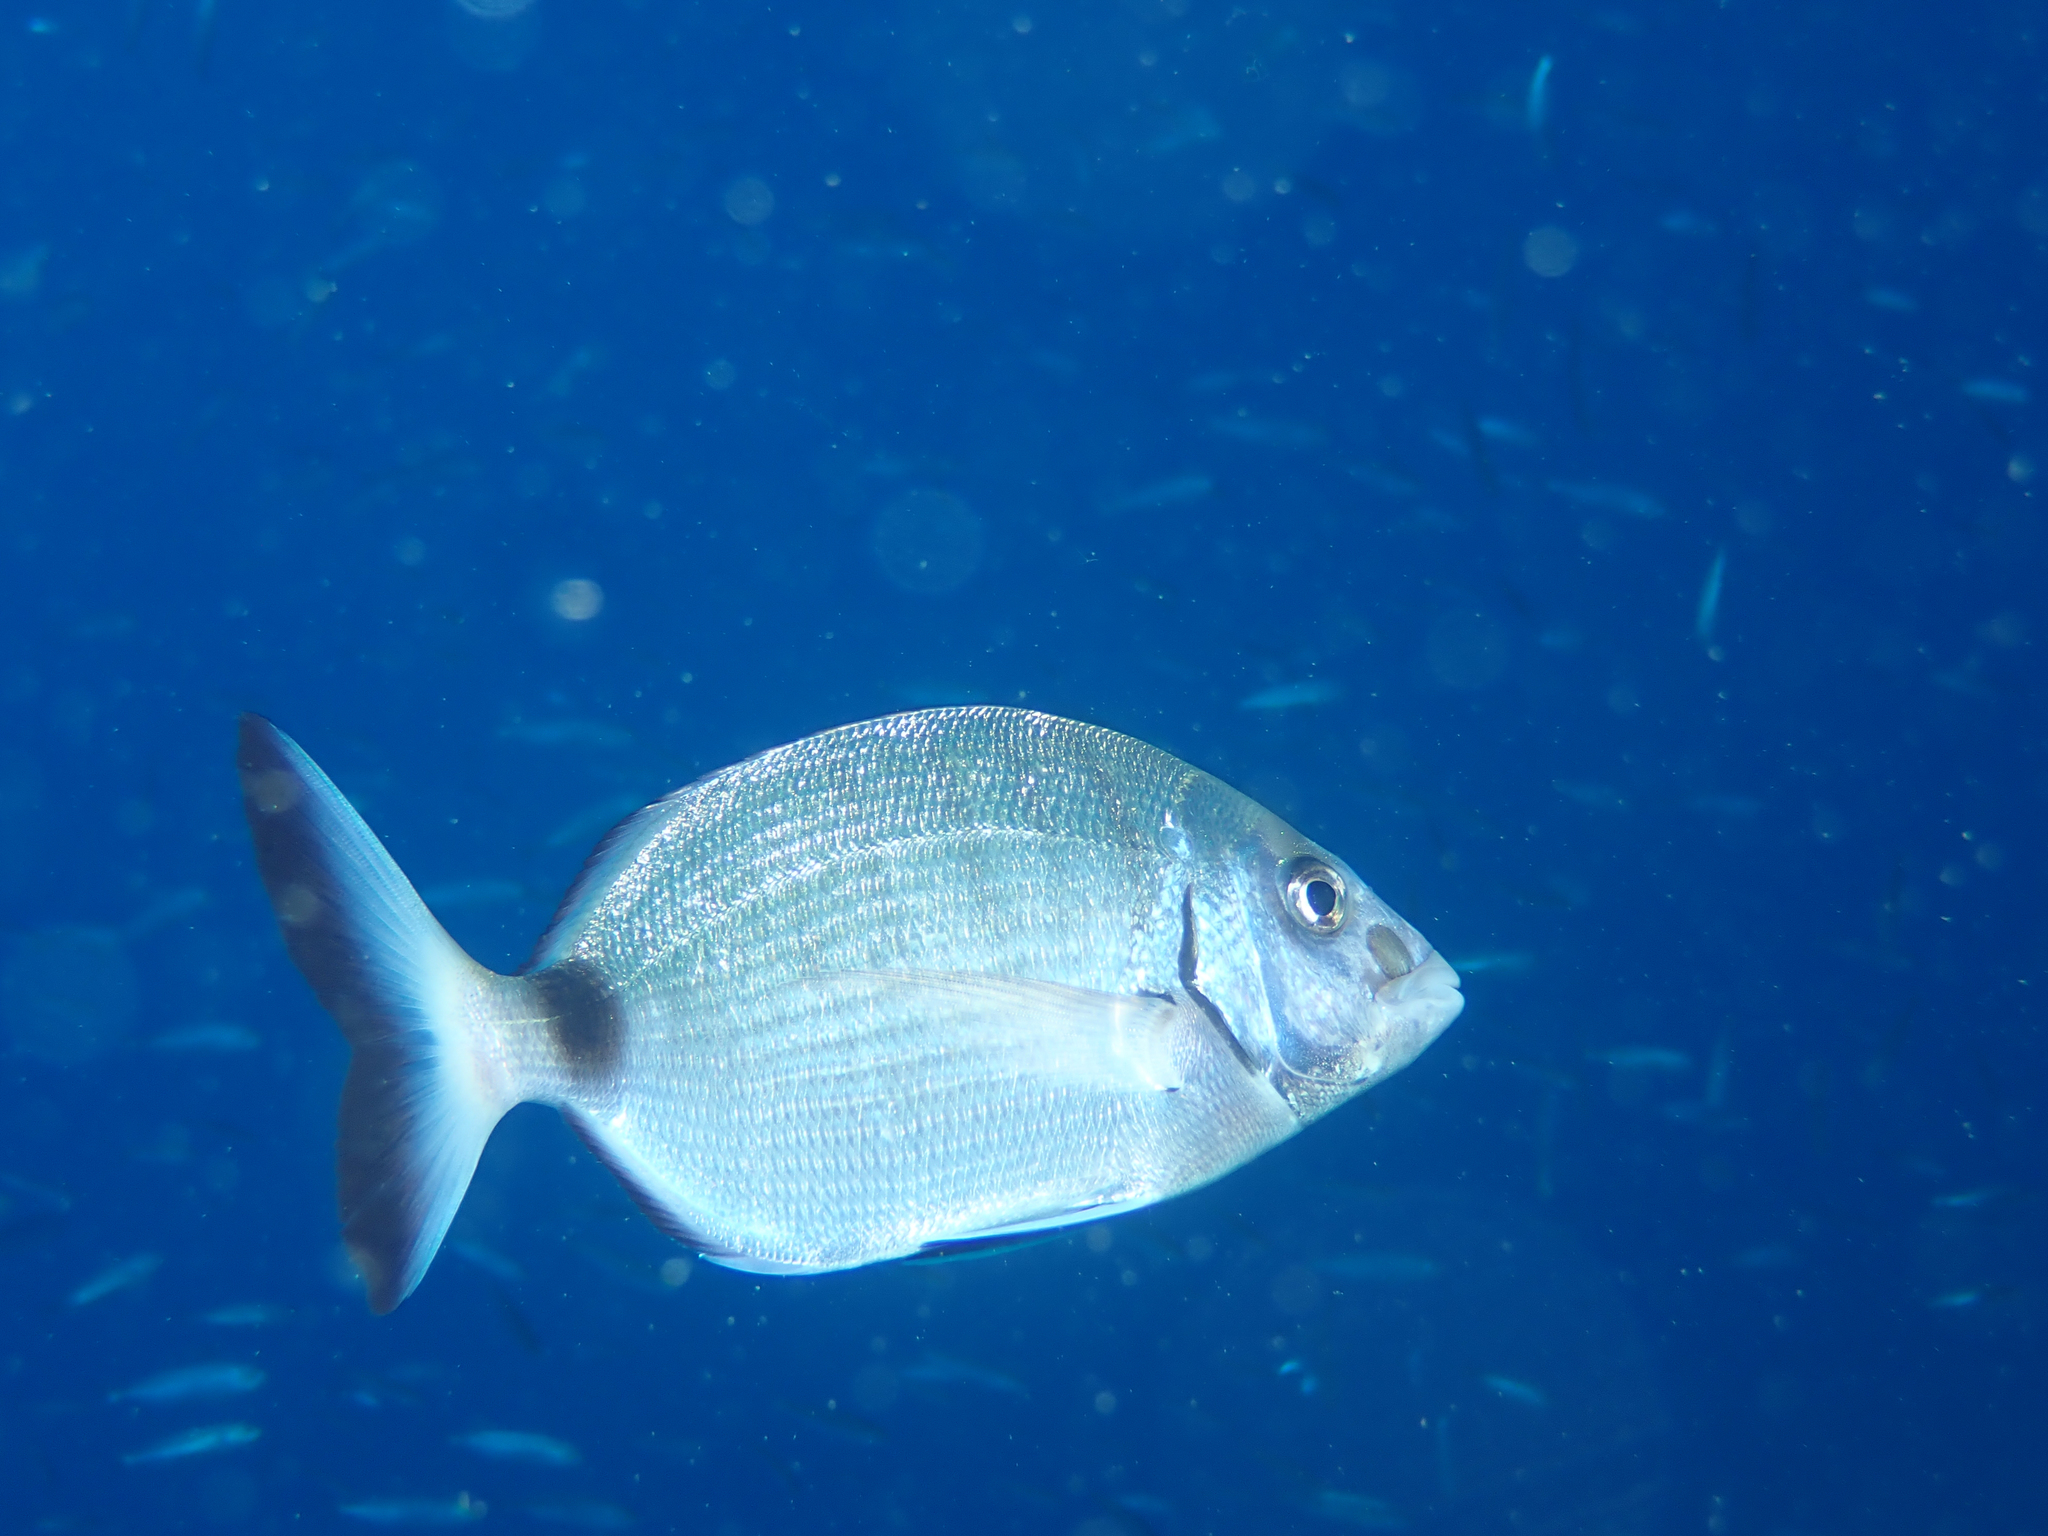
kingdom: Animalia
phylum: Chordata
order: Perciformes
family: Sparidae
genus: Diplodus
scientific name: Diplodus sargus
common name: White seabream
